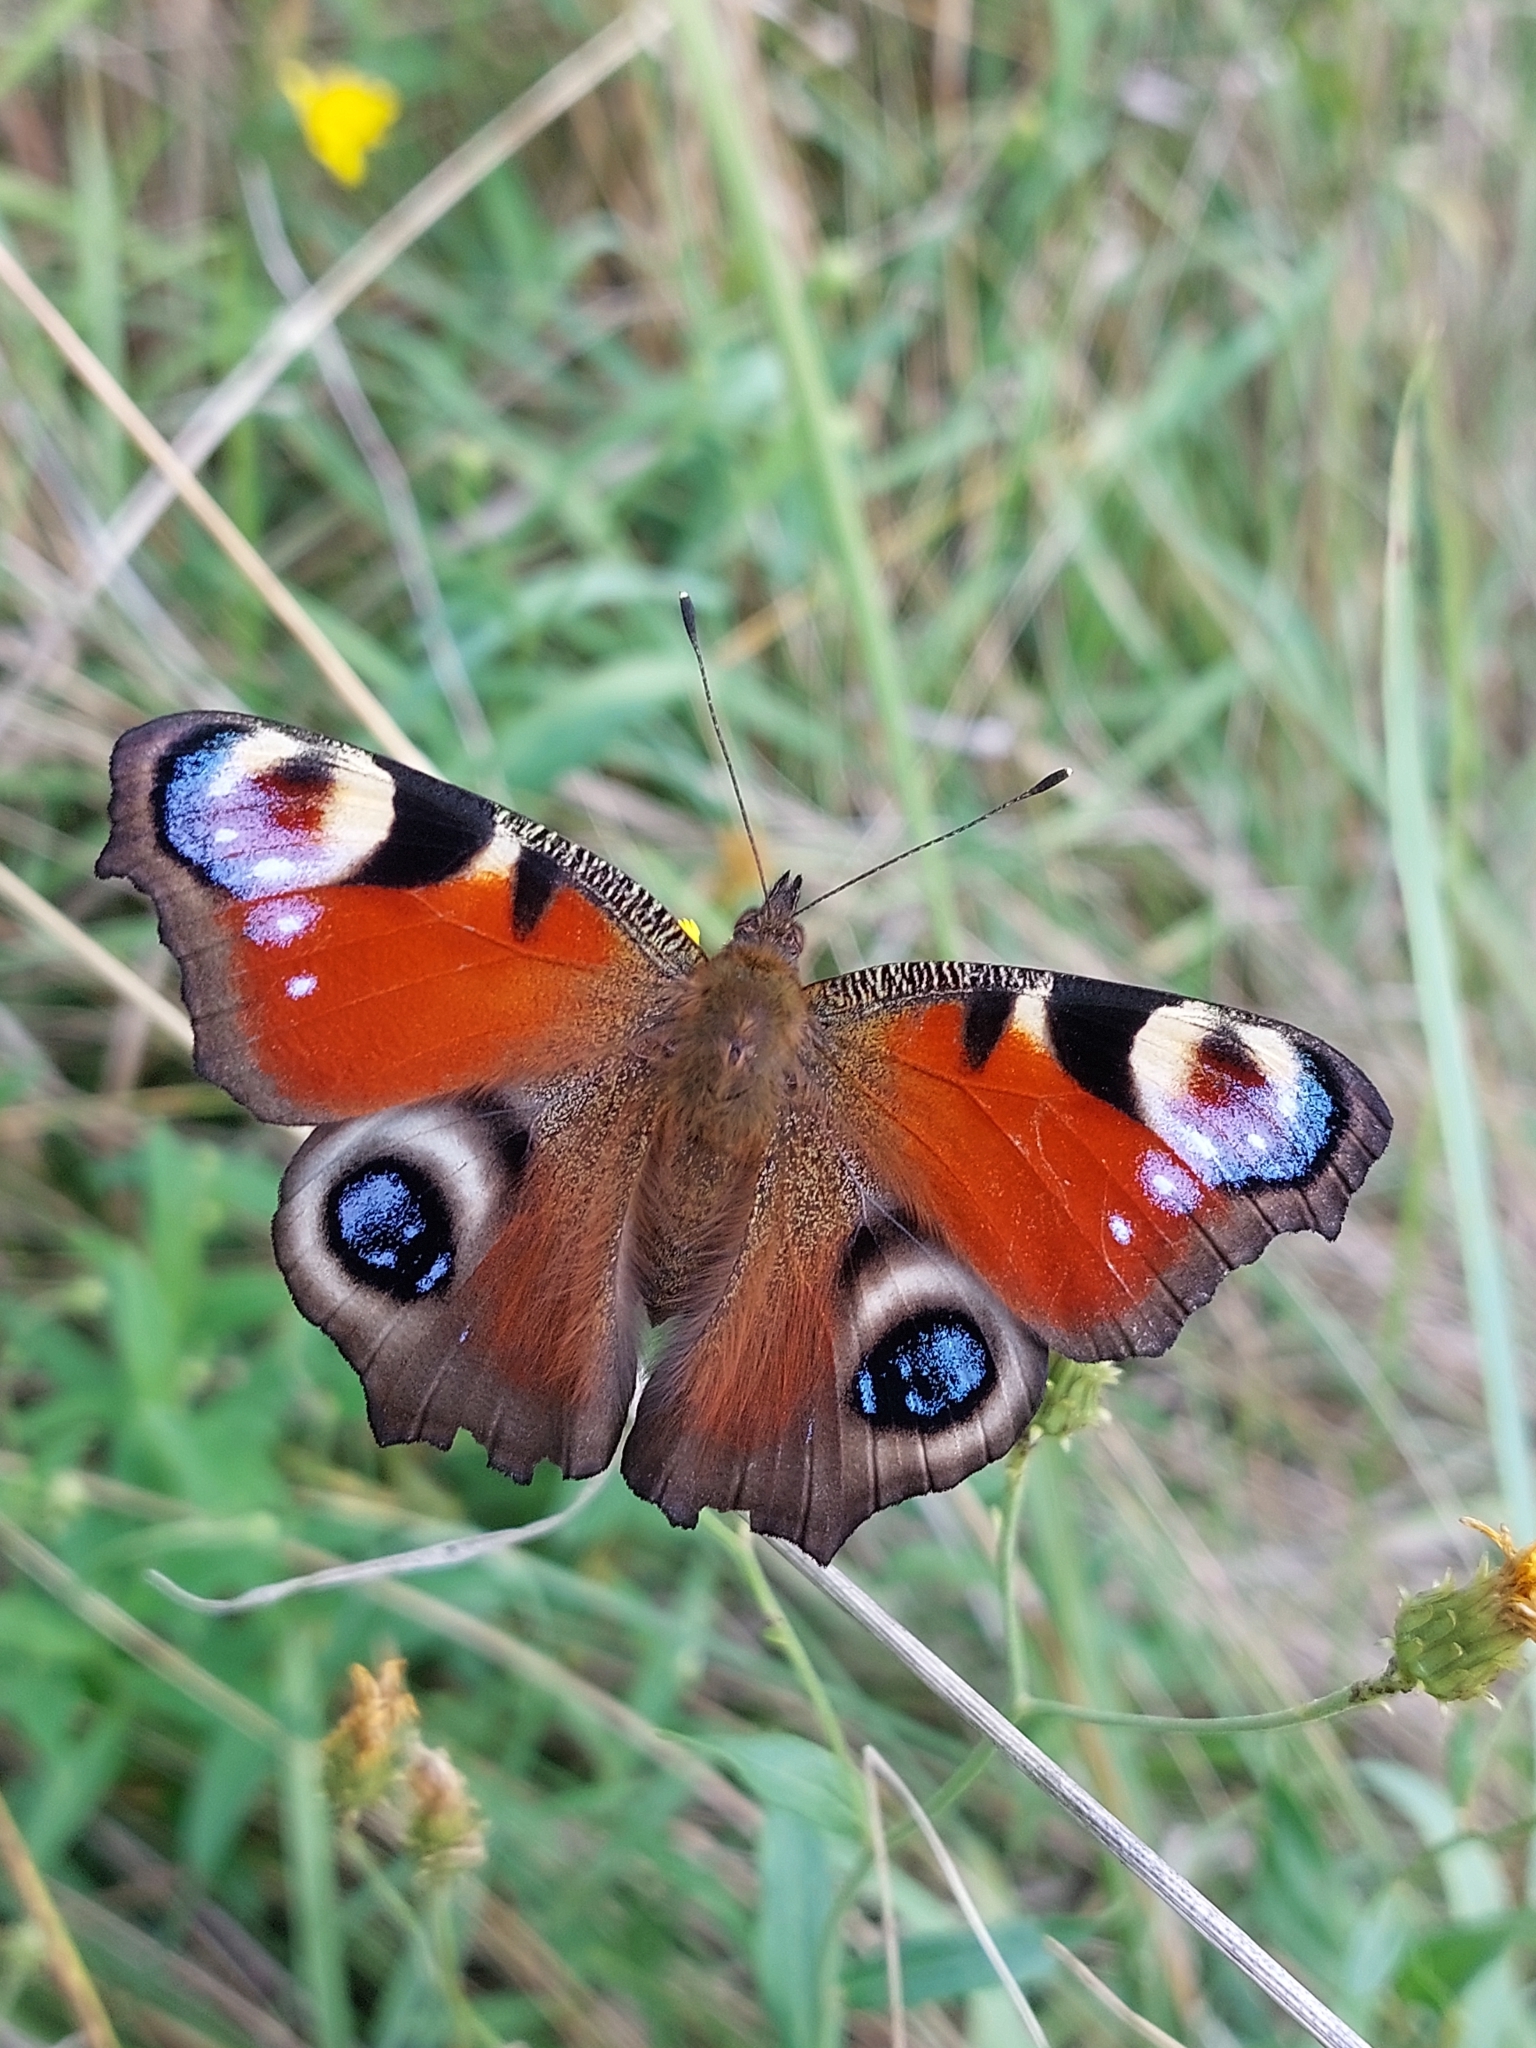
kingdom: Animalia
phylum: Arthropoda
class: Insecta
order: Lepidoptera
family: Nymphalidae
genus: Aglais
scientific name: Aglais io
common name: Peacock
